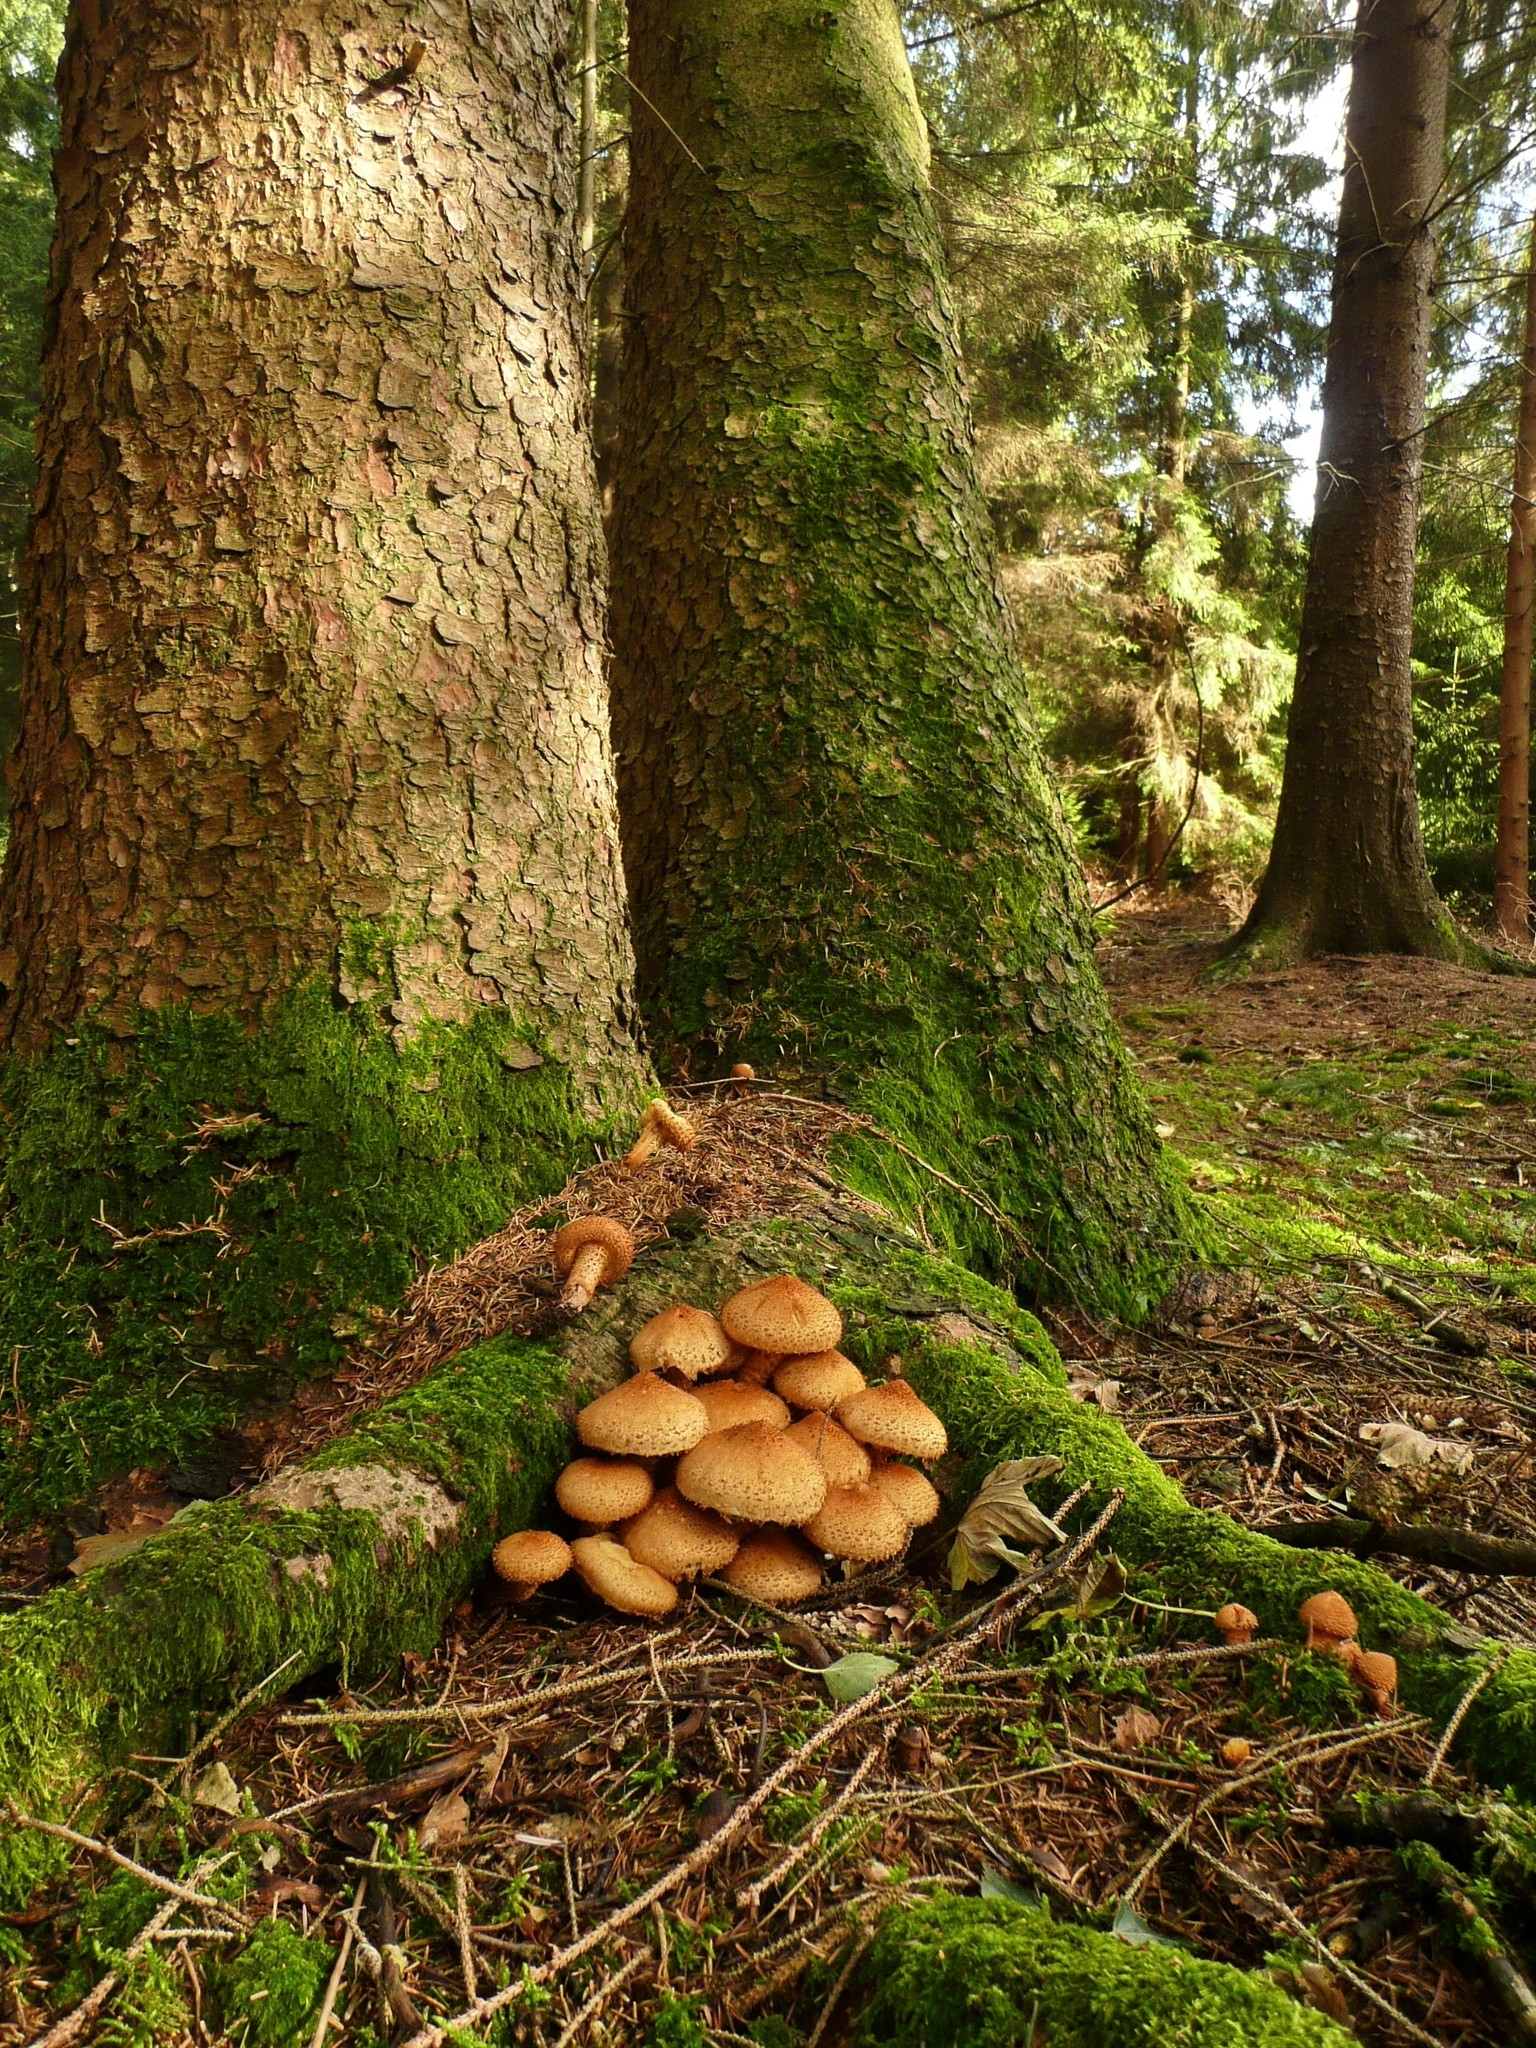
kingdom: Fungi
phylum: Basidiomycota
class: Agaricomycetes
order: Agaricales
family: Strophariaceae
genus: Pholiota
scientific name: Pholiota squarrosa
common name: Shaggy pholiota
